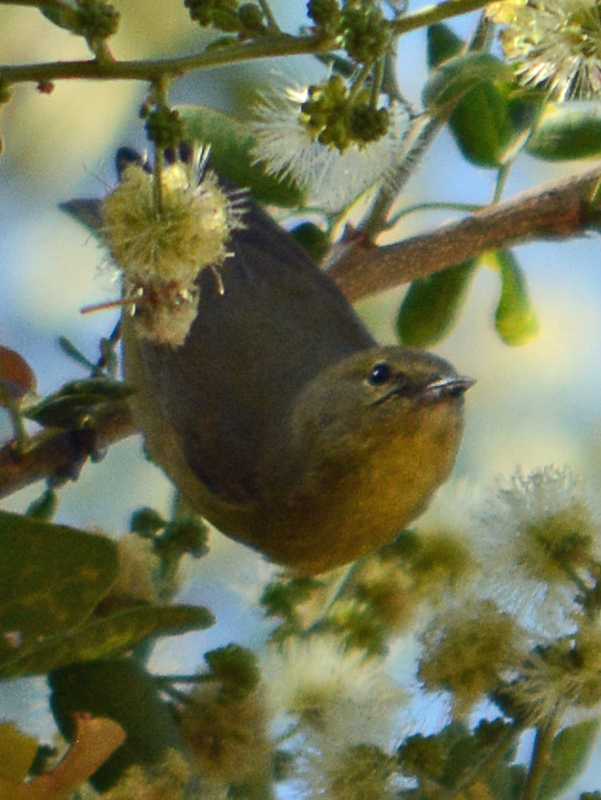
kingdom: Animalia
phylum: Chordata
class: Aves
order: Passeriformes
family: Parulidae
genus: Leiothlypis
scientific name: Leiothlypis celata
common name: Orange-crowned warbler
